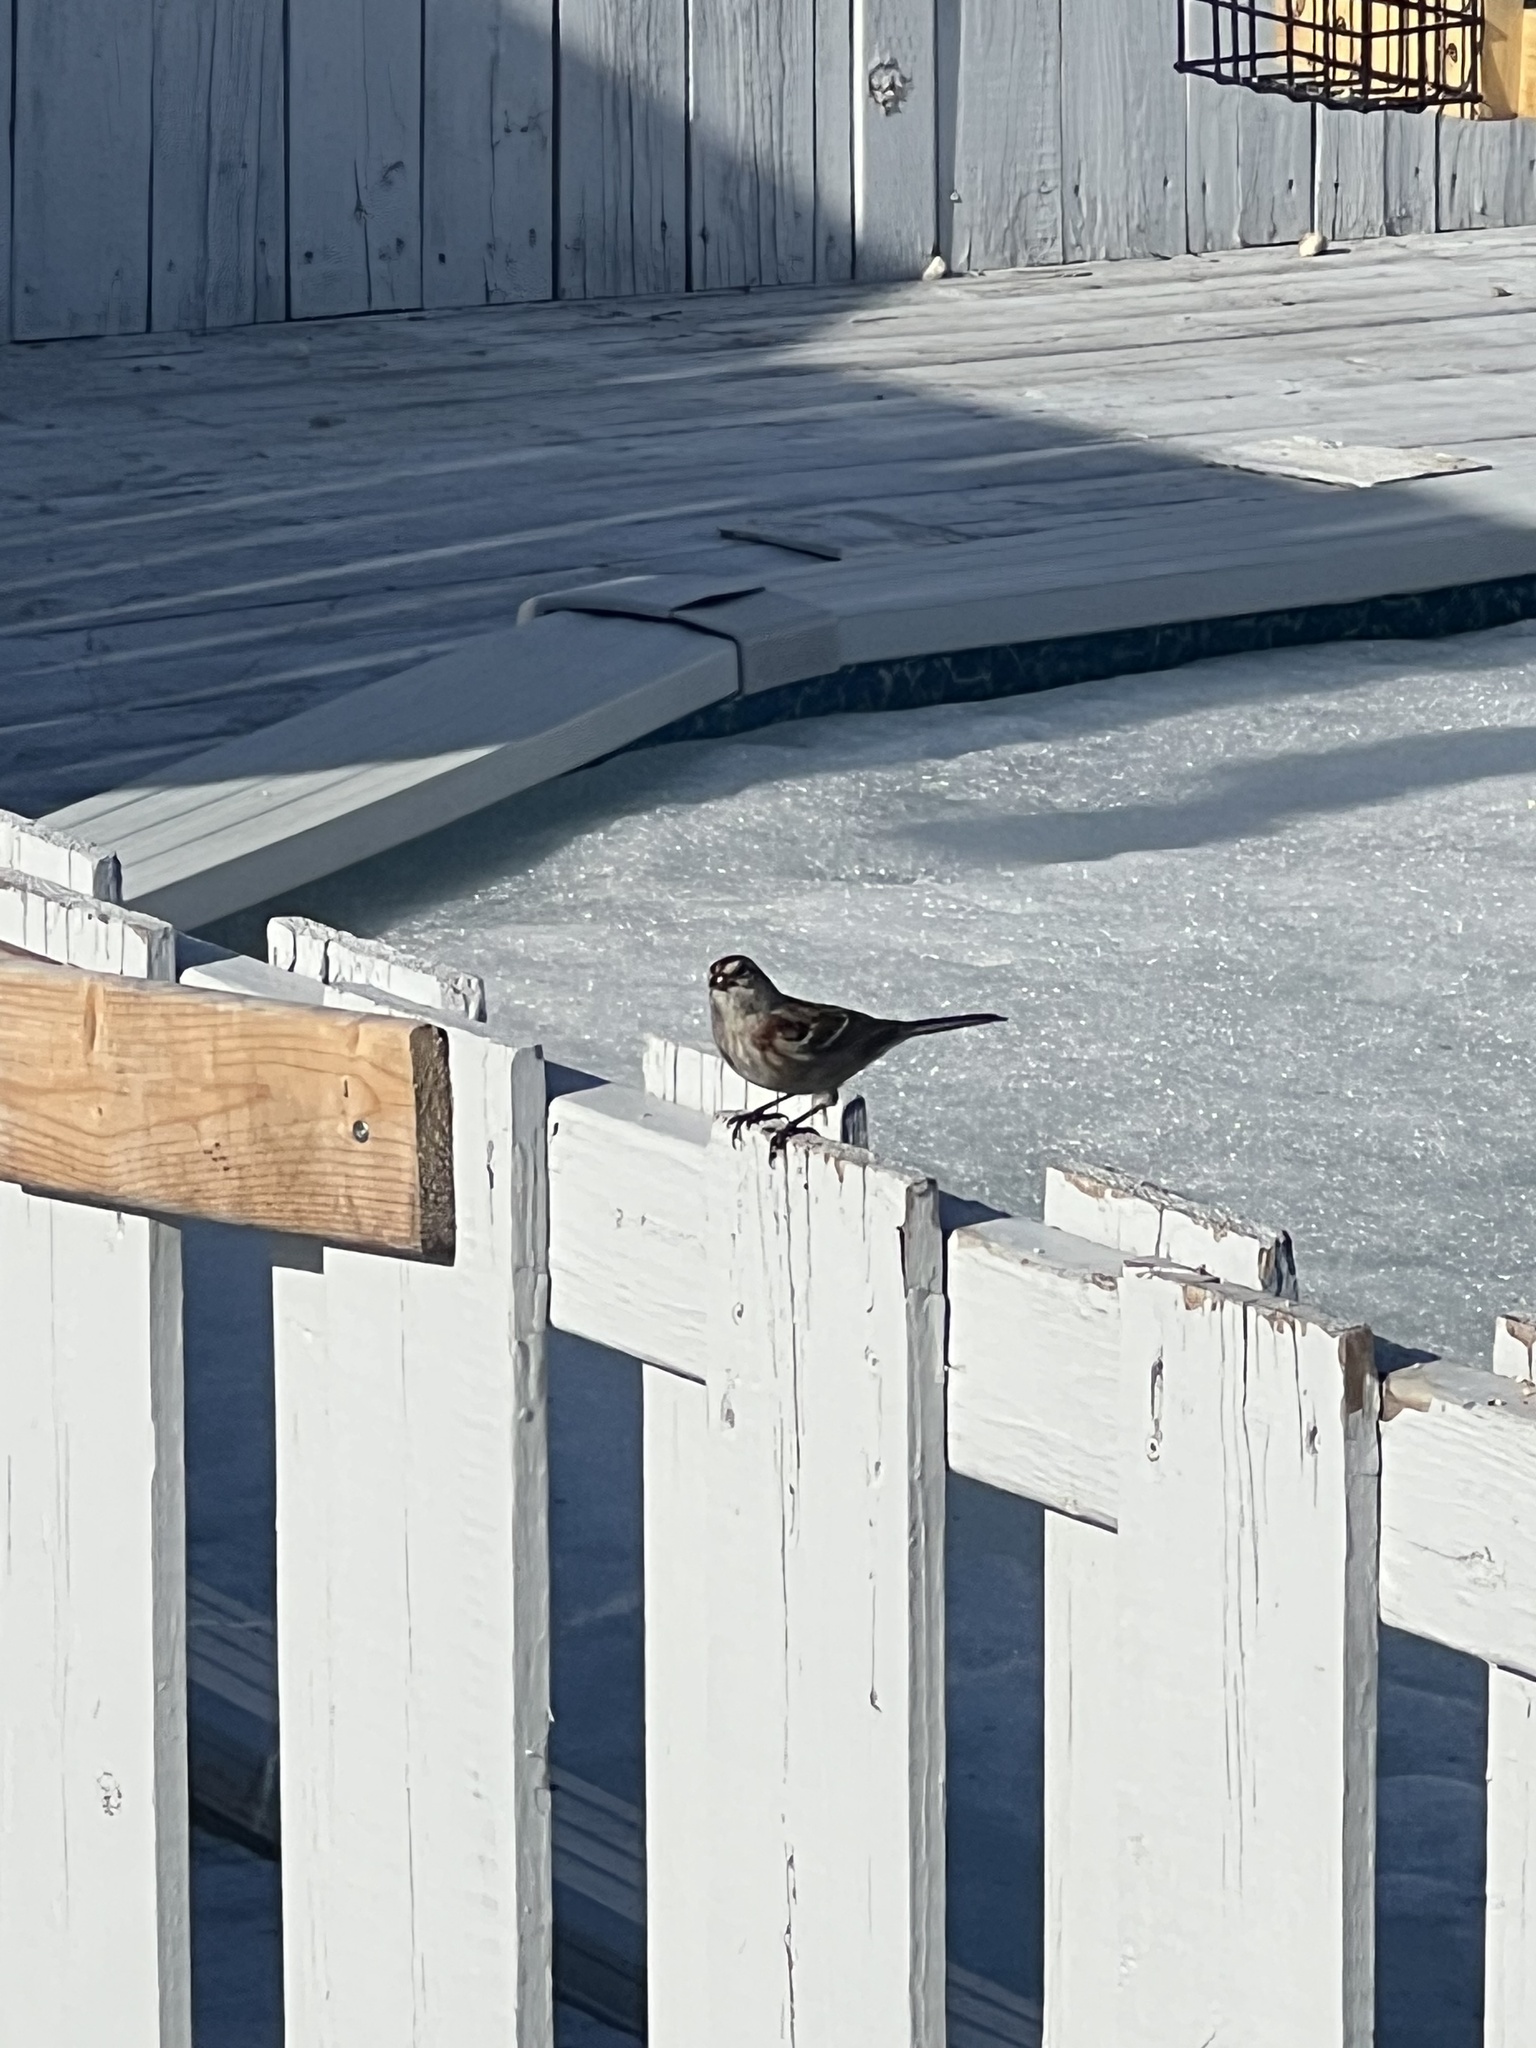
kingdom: Animalia
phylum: Chordata
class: Aves
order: Passeriformes
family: Passerellidae
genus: Spizelloides
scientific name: Spizelloides arborea
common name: American tree sparrow
